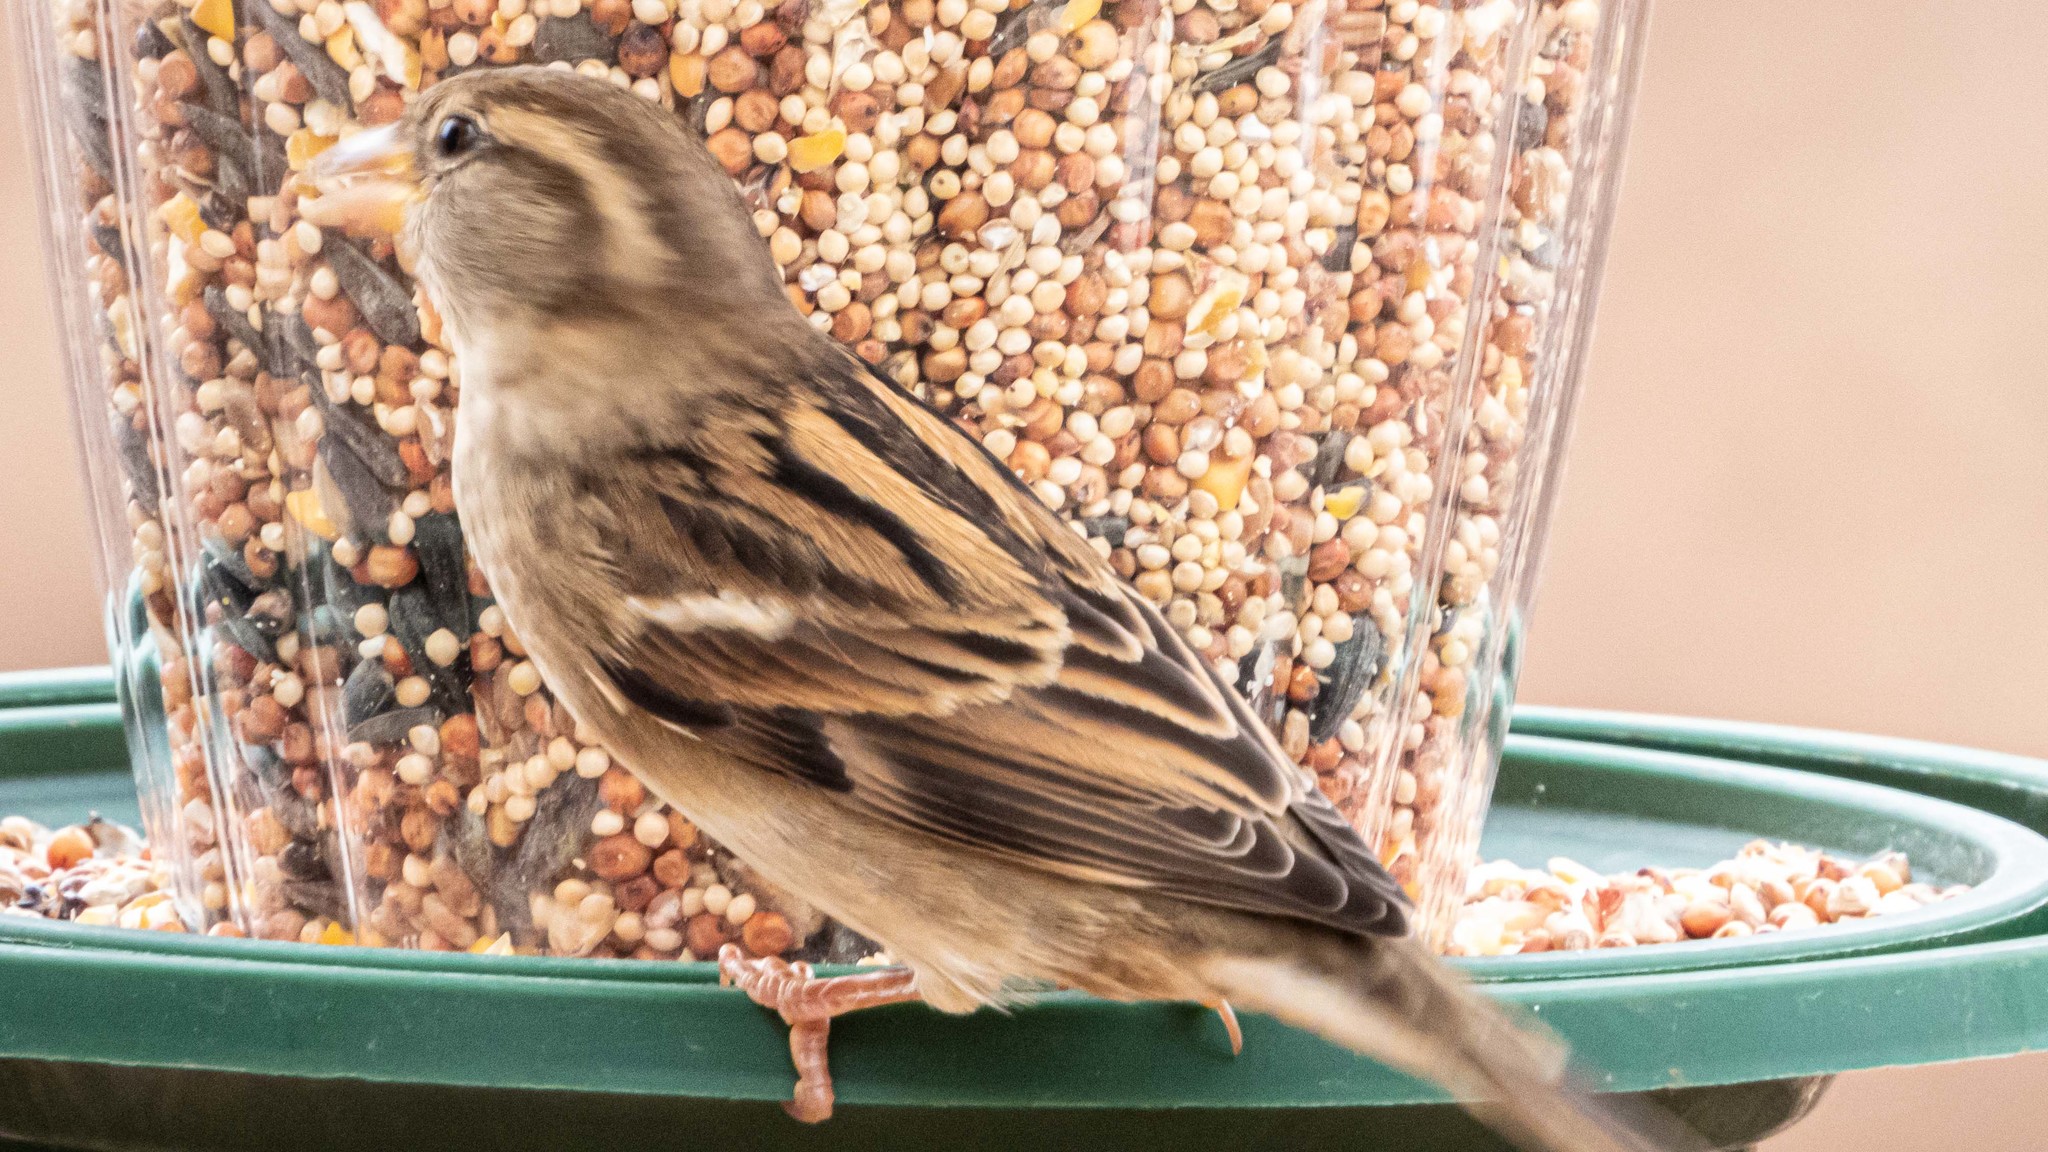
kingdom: Animalia
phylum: Chordata
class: Aves
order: Passeriformes
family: Passeridae
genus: Passer
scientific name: Passer domesticus
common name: House sparrow
